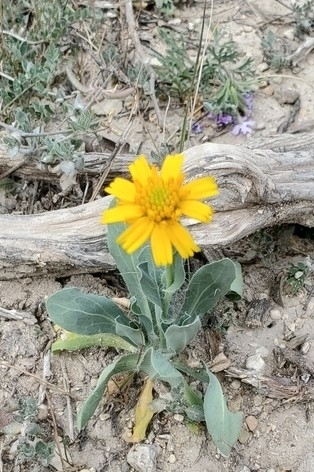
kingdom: Plantae
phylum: Tracheophyta
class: Magnoliopsida
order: Asterales
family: Asteraceae
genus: Amblyolepis
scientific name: Amblyolepis setigera
